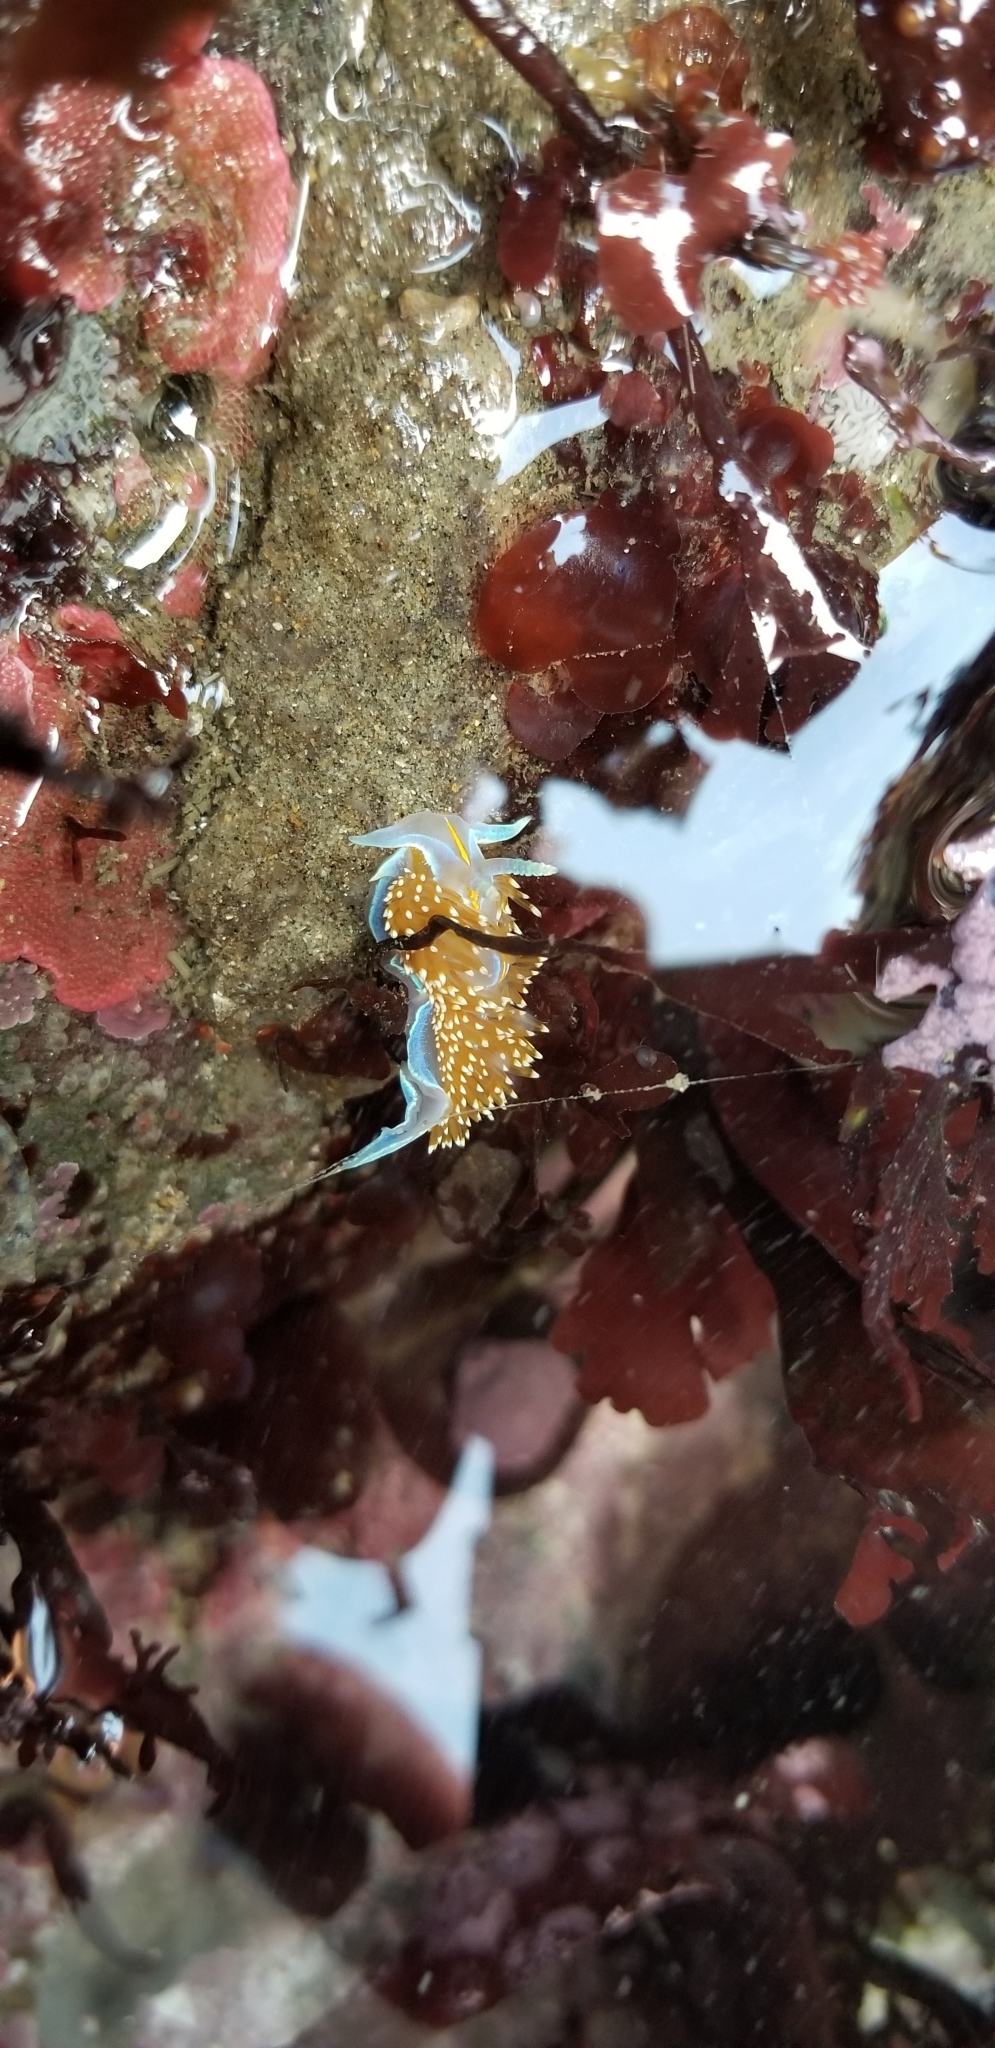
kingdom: Animalia
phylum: Mollusca
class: Gastropoda
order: Nudibranchia
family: Myrrhinidae
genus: Hermissenda
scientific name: Hermissenda opalescens
